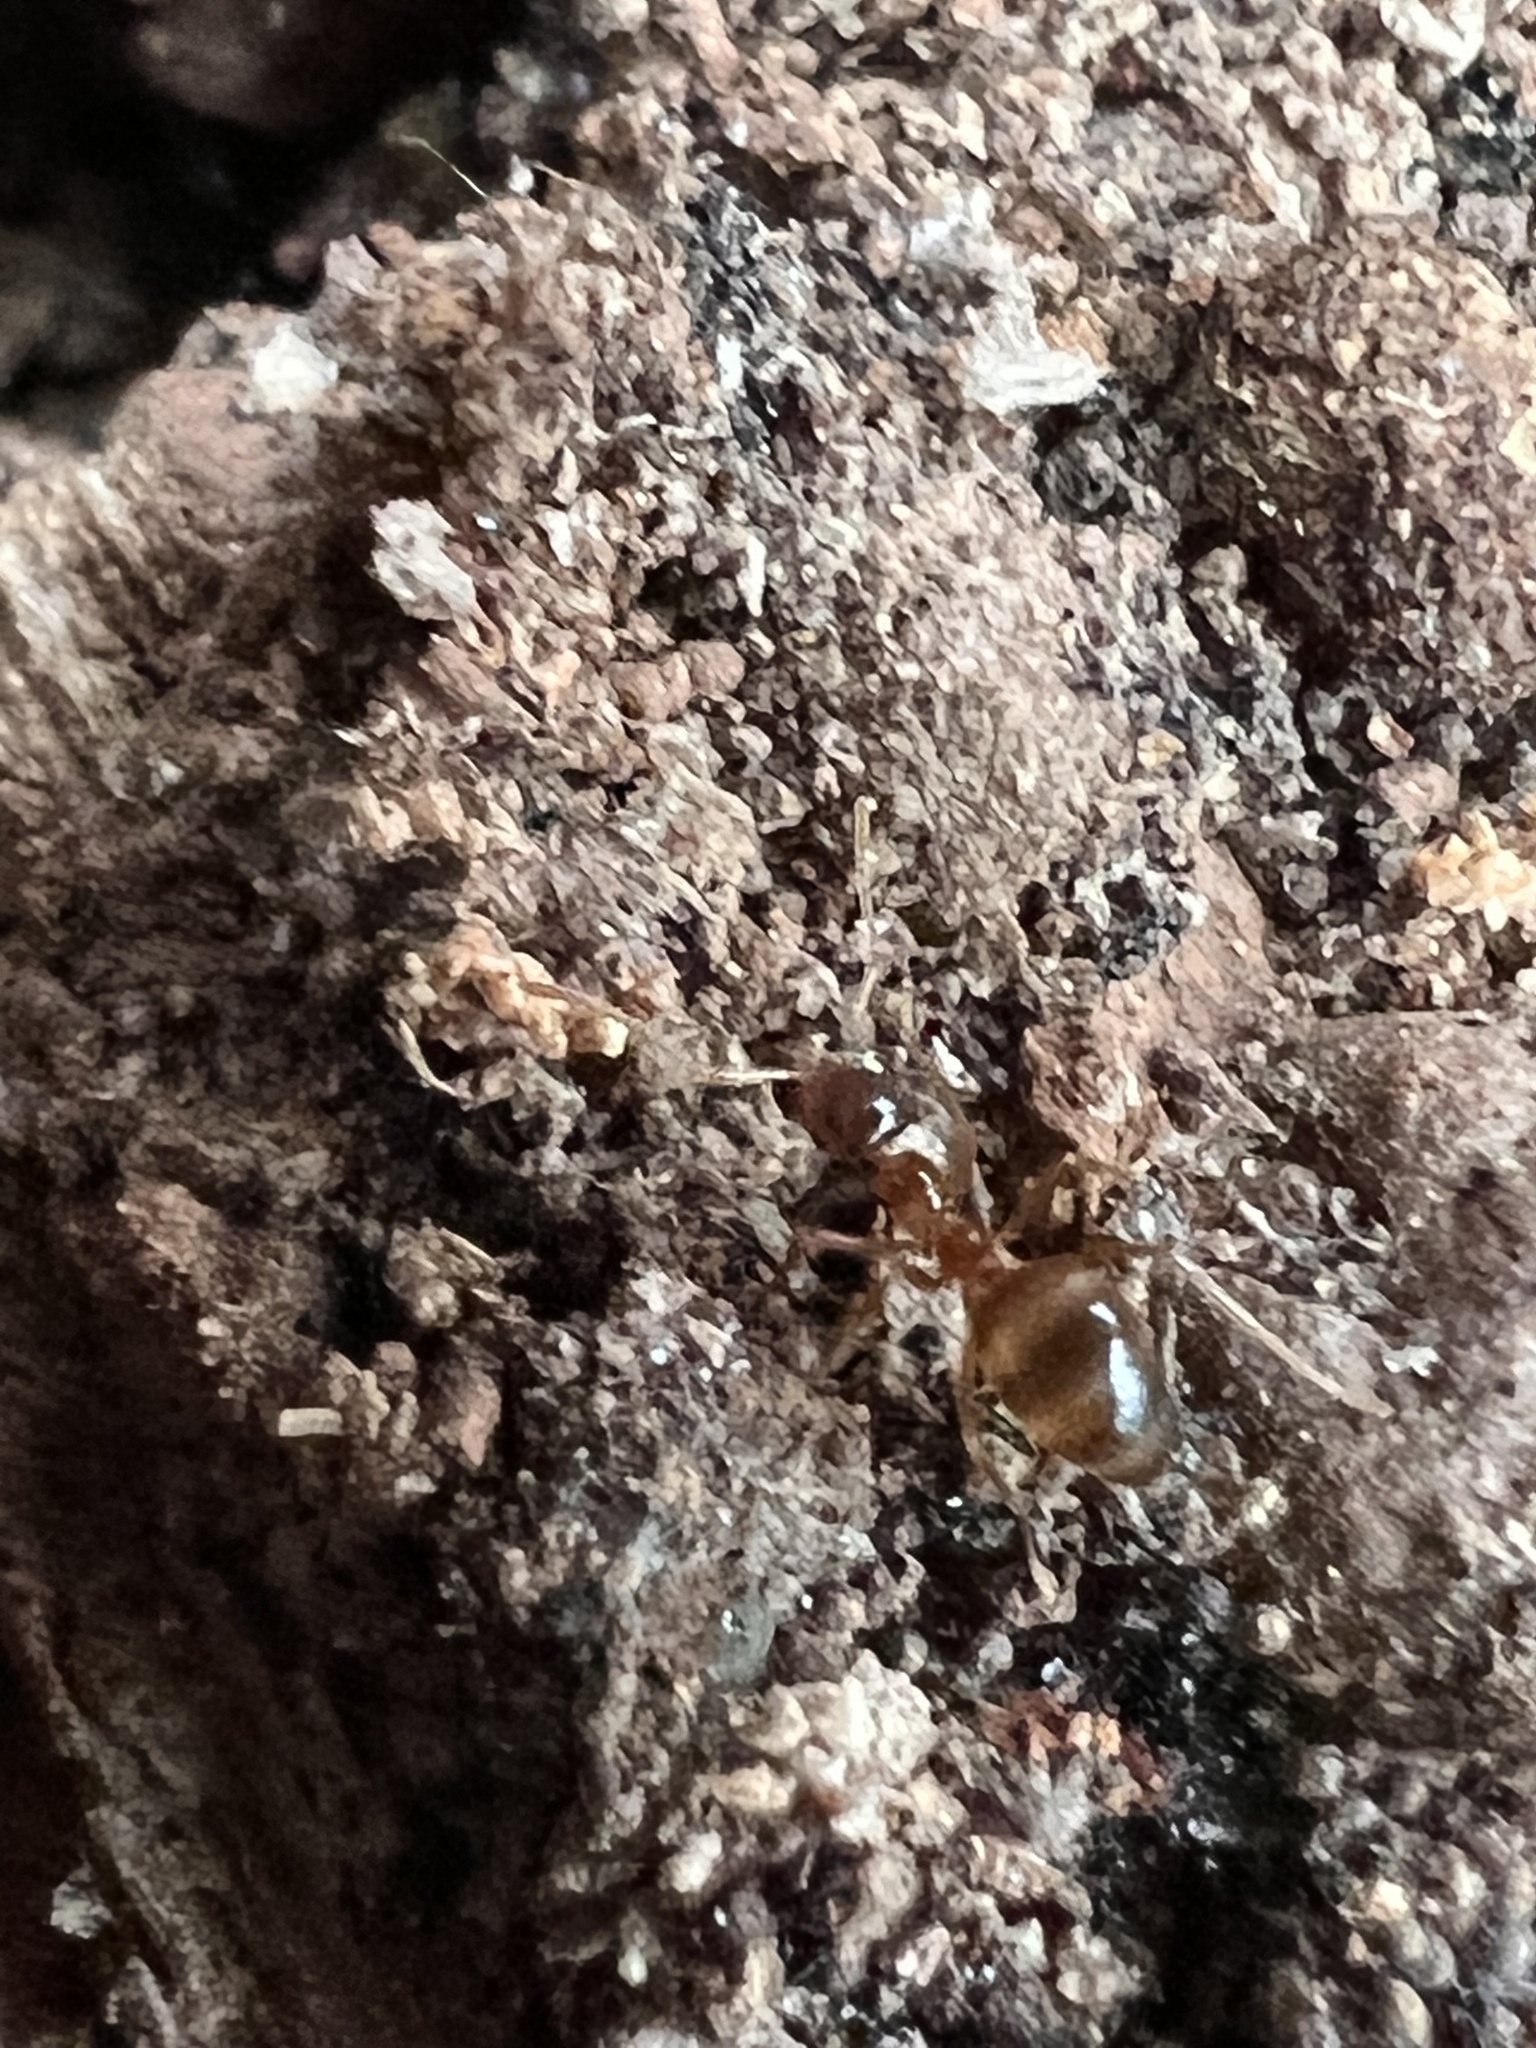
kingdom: Animalia
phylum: Arthropoda
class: Insecta
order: Hymenoptera
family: Formicidae
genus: Prenolepis
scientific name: Prenolepis imparis
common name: Small honey ant
